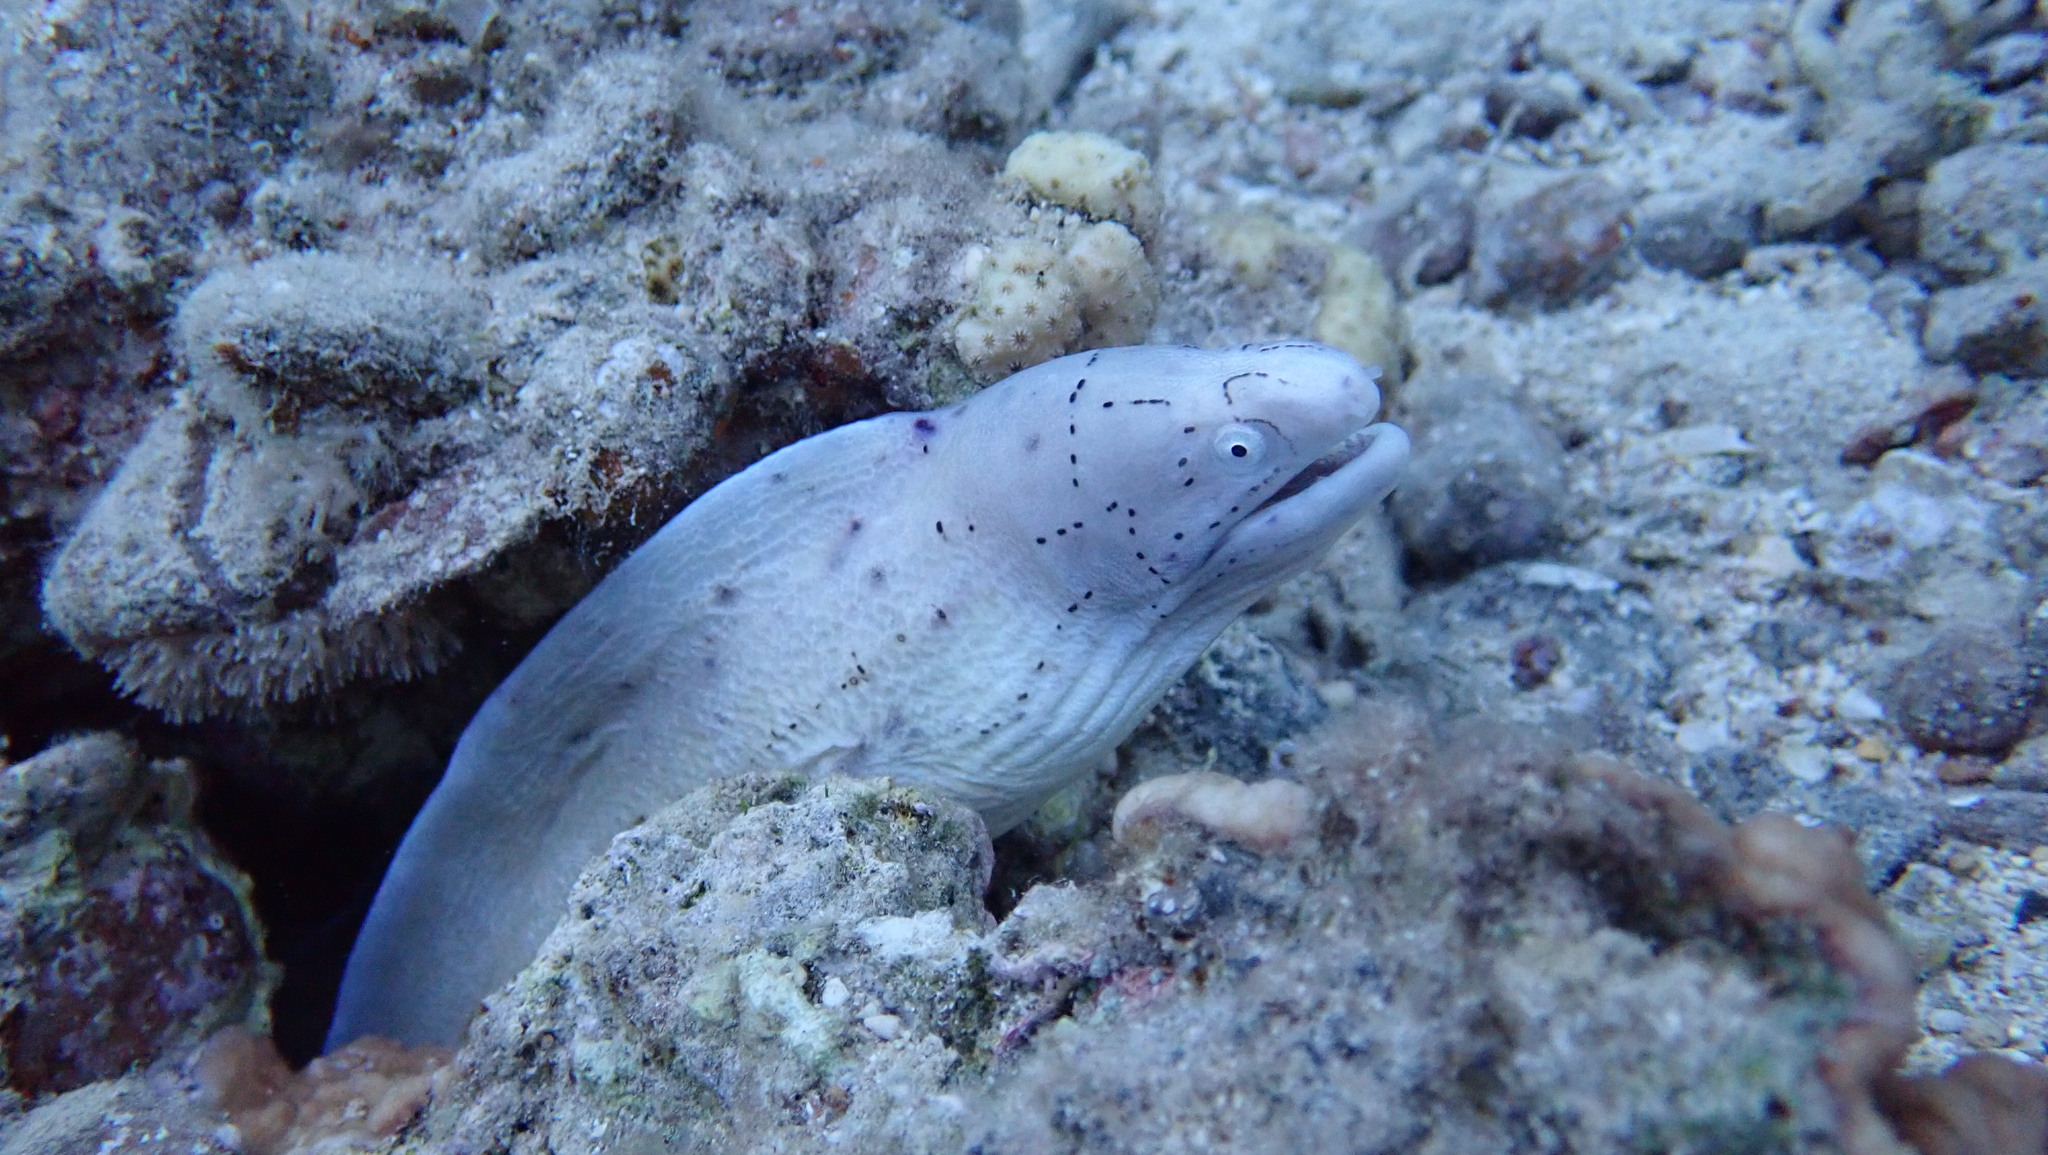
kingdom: Animalia
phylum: Chordata
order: Anguilliformes
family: Muraenidae
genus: Gymnothorax
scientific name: Gymnothorax griseus
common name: Geometric moray
